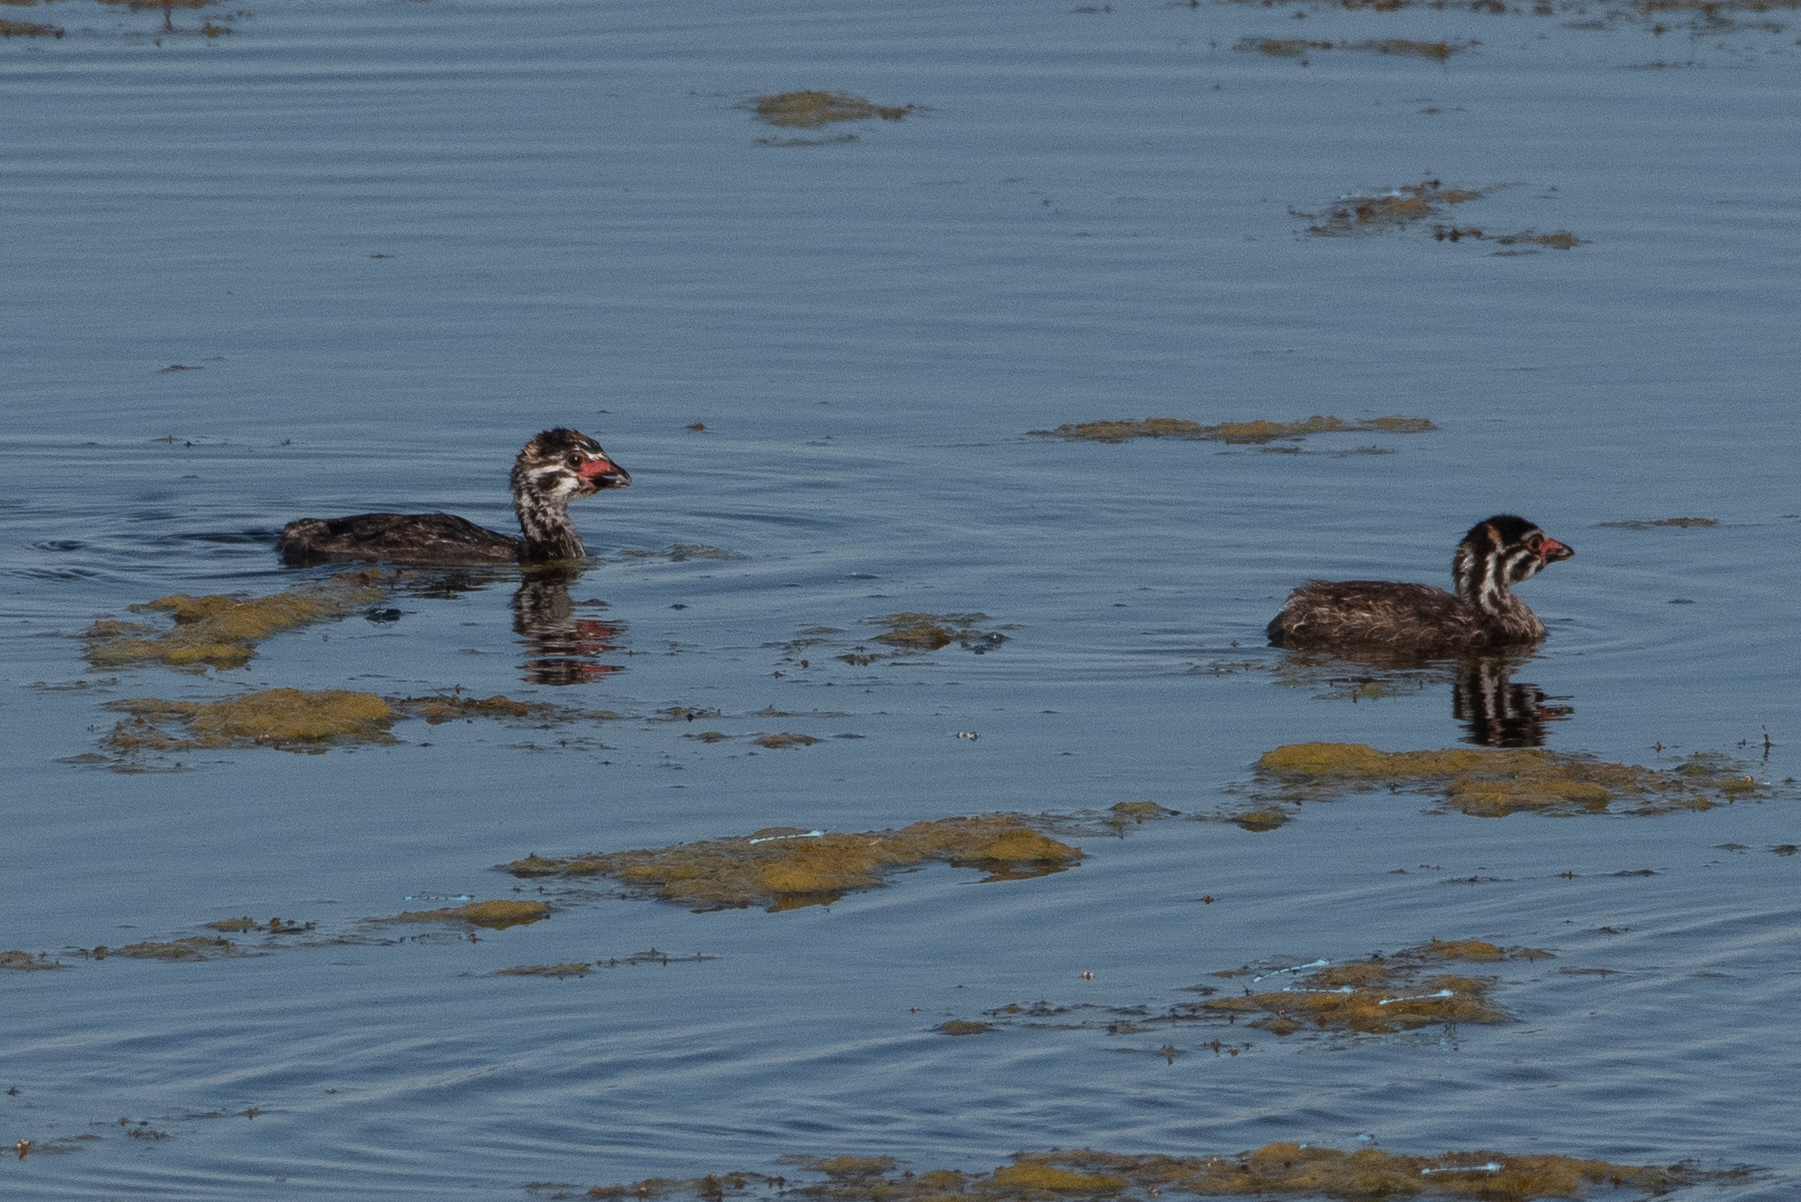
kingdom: Animalia
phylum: Chordata
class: Aves
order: Podicipediformes
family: Podicipedidae
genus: Podilymbus
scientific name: Podilymbus podiceps
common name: Pied-billed grebe
